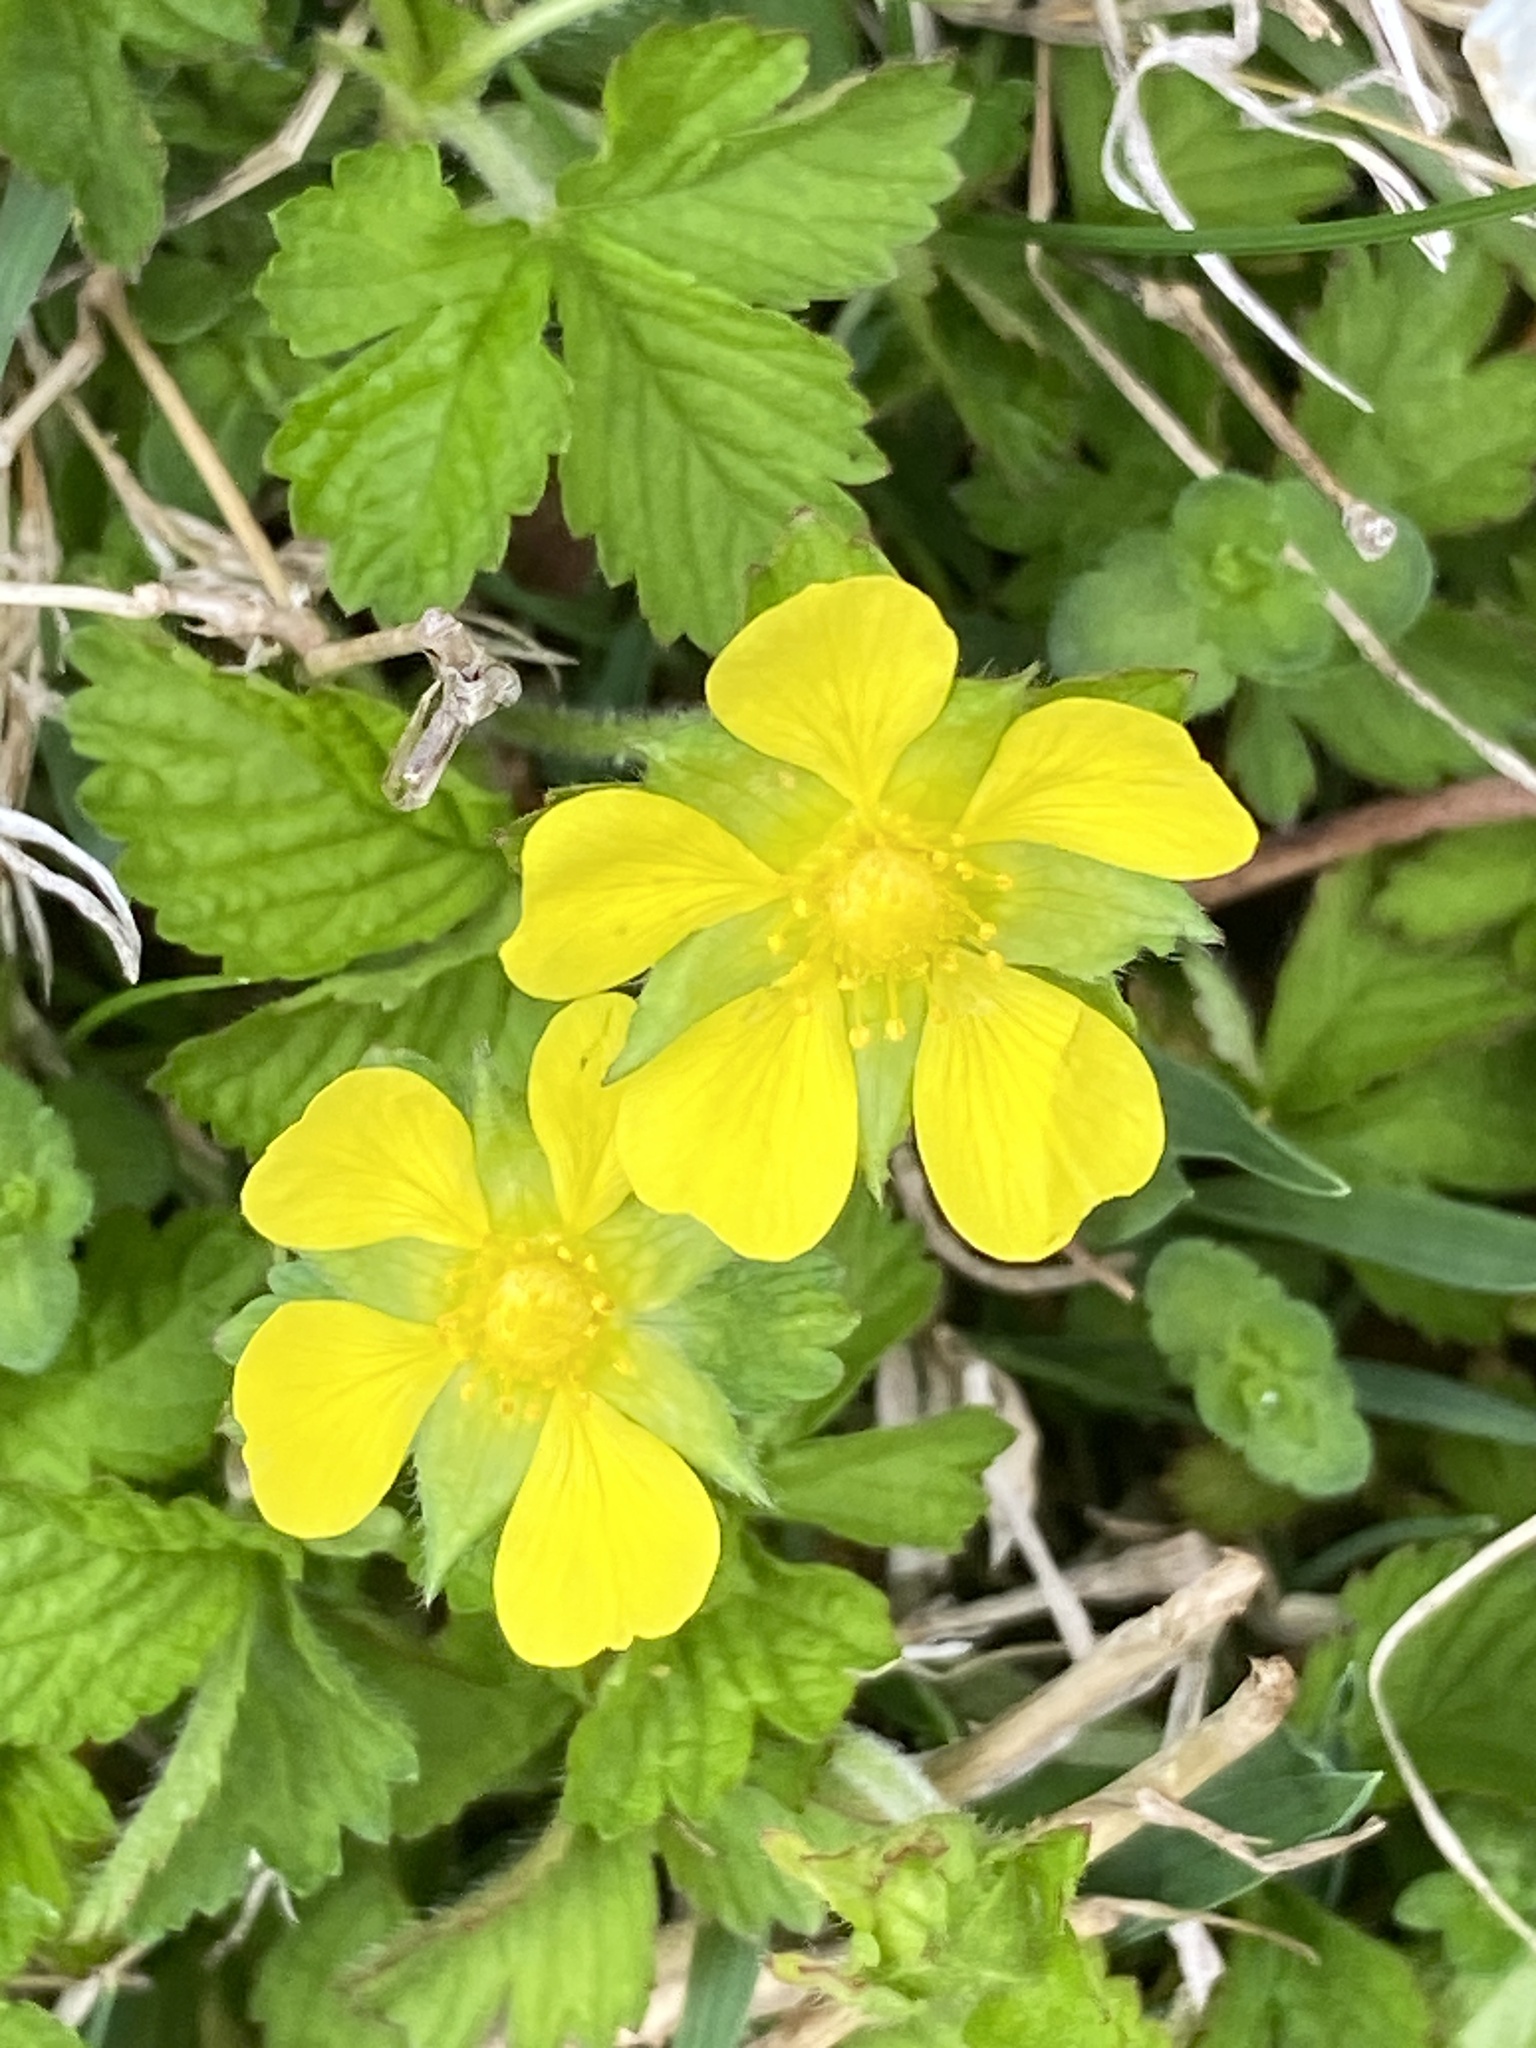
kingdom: Plantae
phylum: Tracheophyta
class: Magnoliopsida
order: Rosales
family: Rosaceae
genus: Potentilla
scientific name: Potentilla indica
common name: Yellow-flowered strawberry
